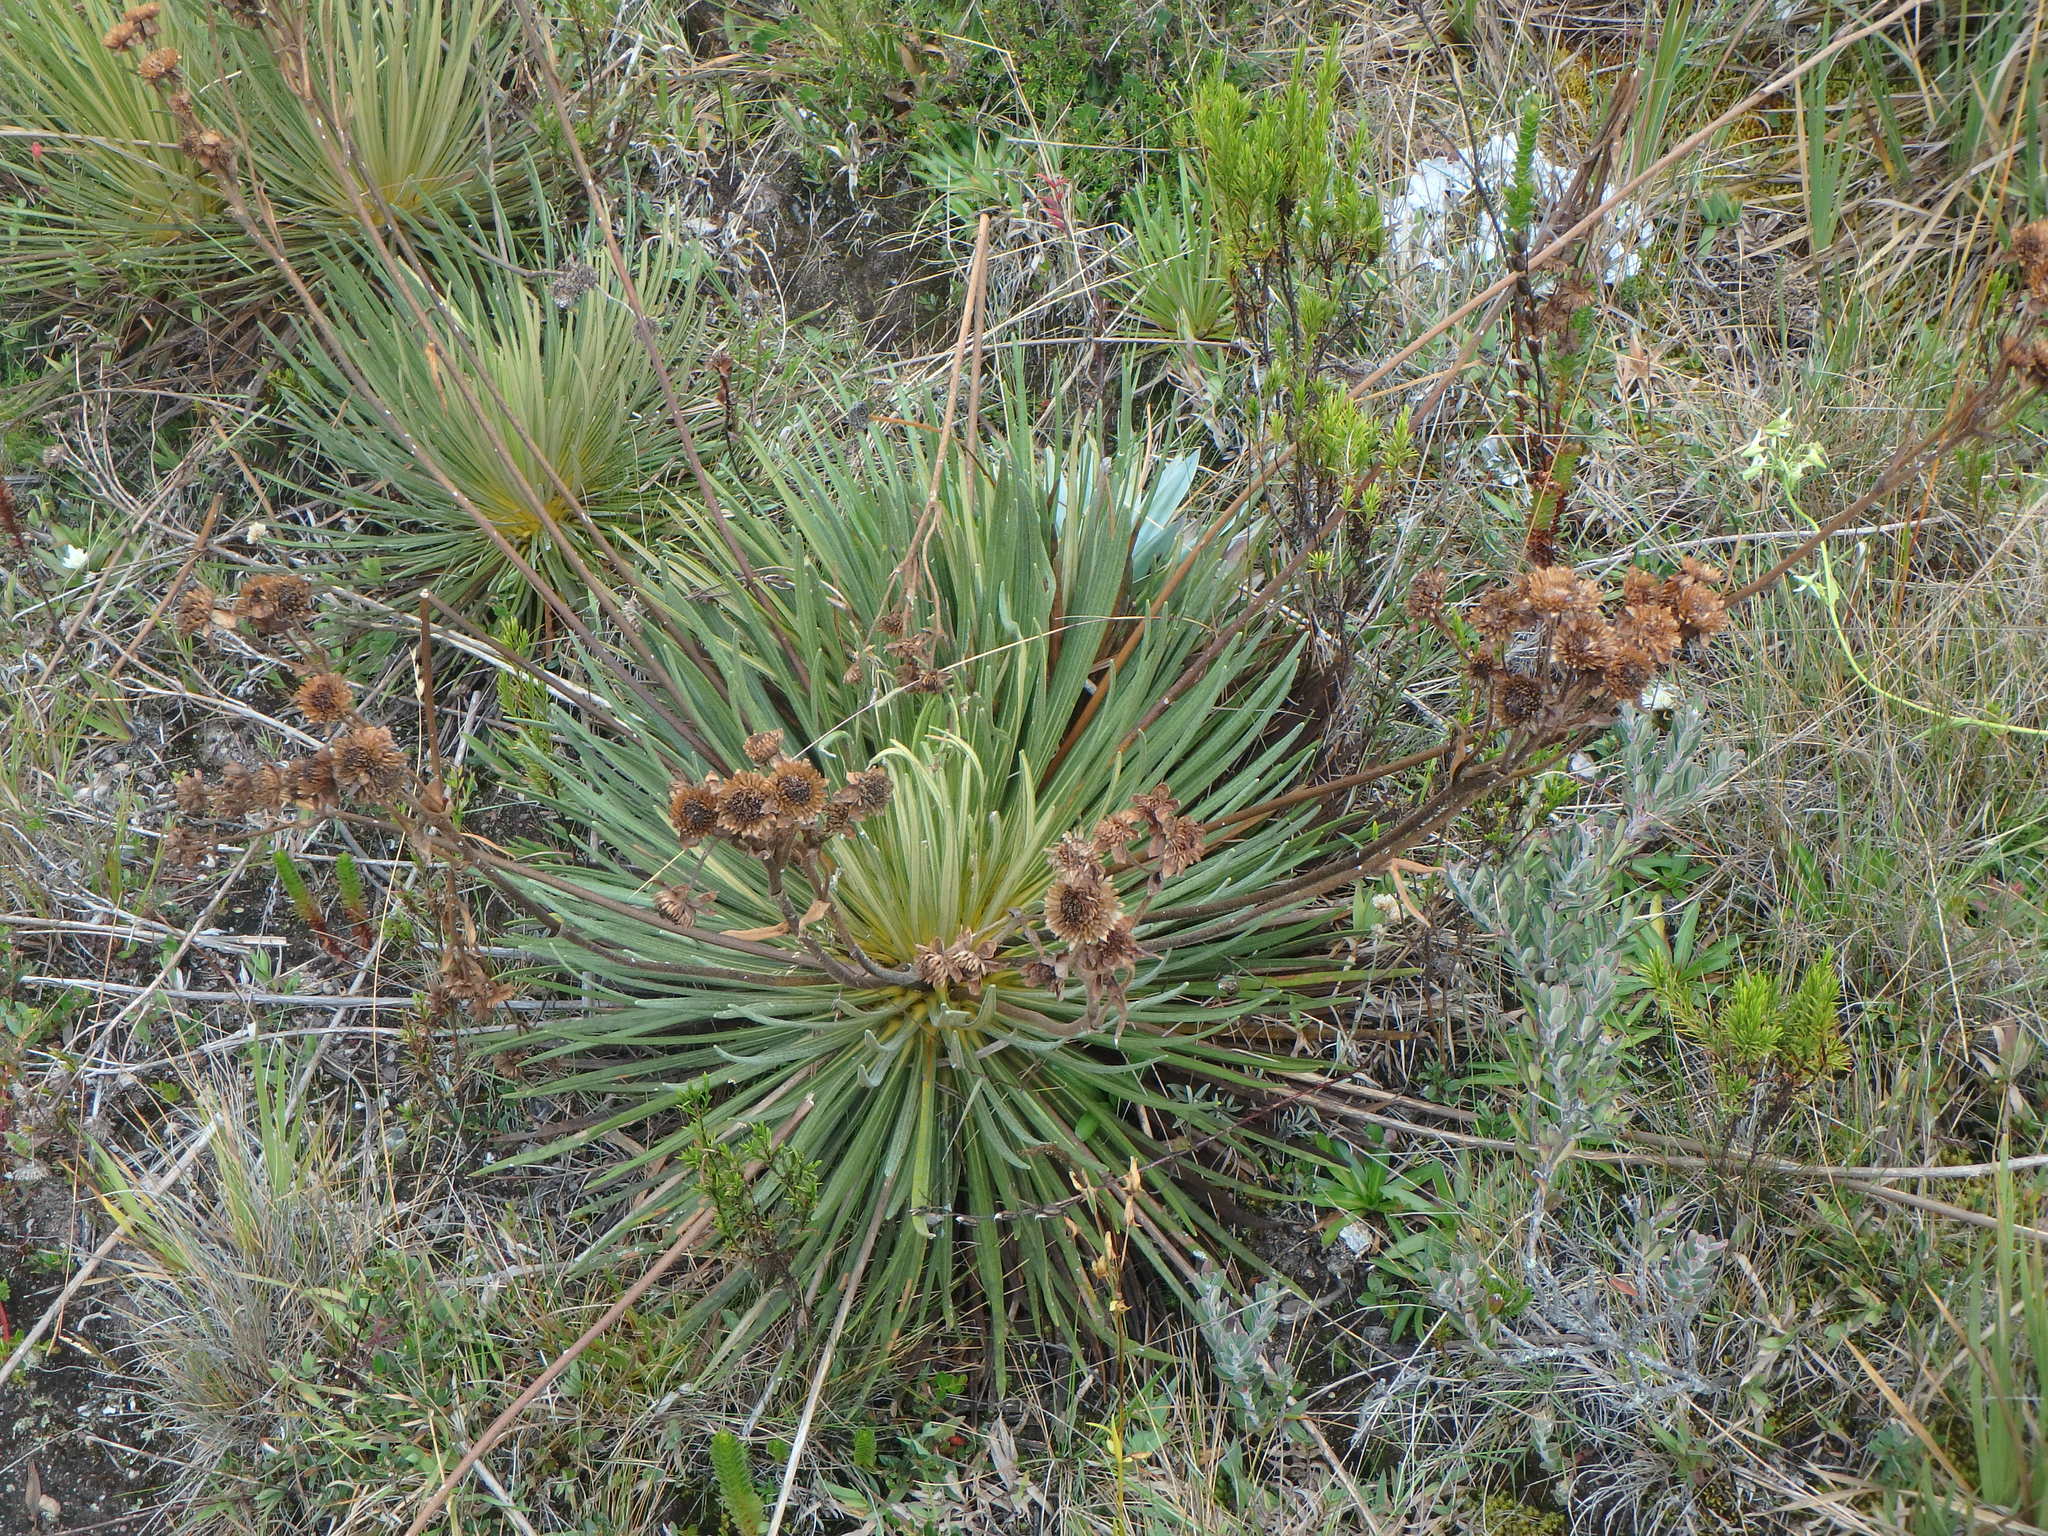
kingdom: Plantae
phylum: Tracheophyta
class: Magnoliopsida
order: Asterales
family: Asteraceae
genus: Espeletia
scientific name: Espeletia glandulosa
